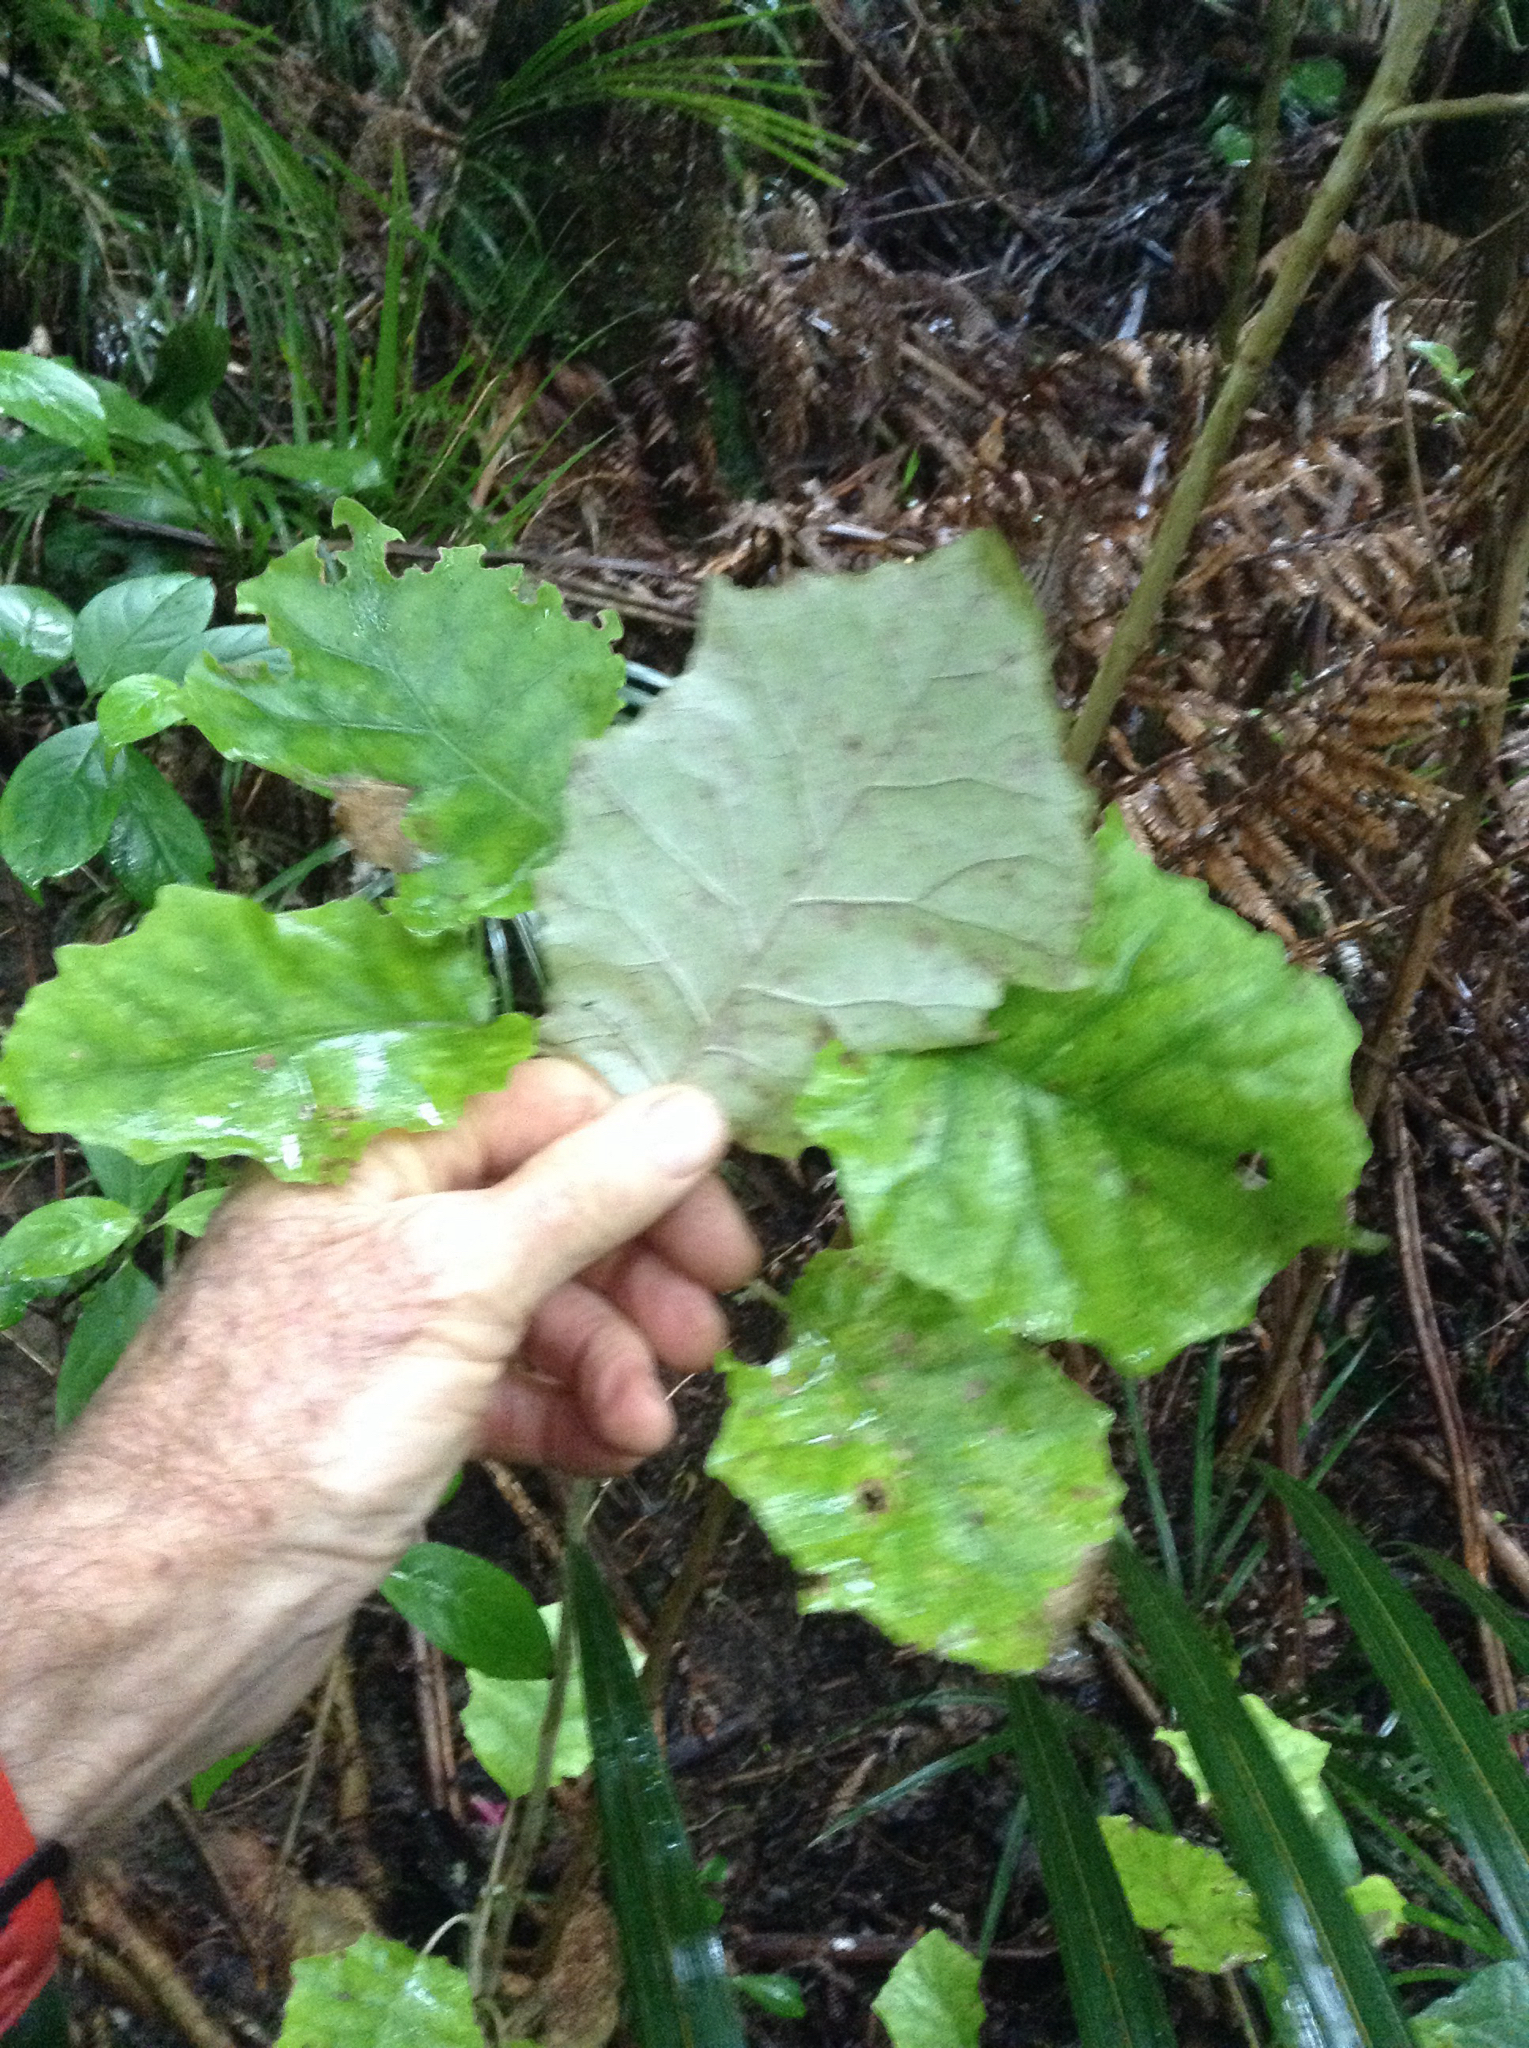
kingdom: Plantae
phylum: Tracheophyta
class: Magnoliopsida
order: Asterales
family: Asteraceae
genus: Brachyglottis
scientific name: Brachyglottis repanda
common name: Hedge ragwort
